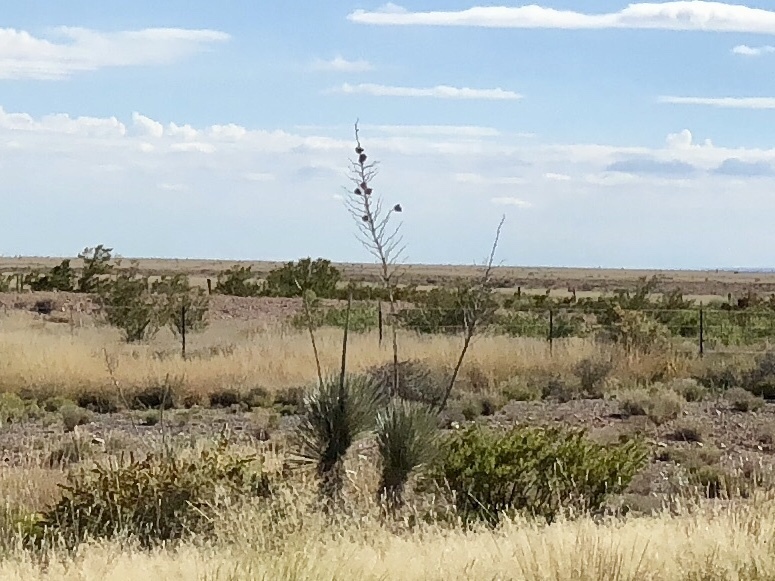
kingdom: Plantae
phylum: Tracheophyta
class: Liliopsida
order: Asparagales
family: Asparagaceae
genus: Yucca
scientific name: Yucca elata
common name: Palmella
